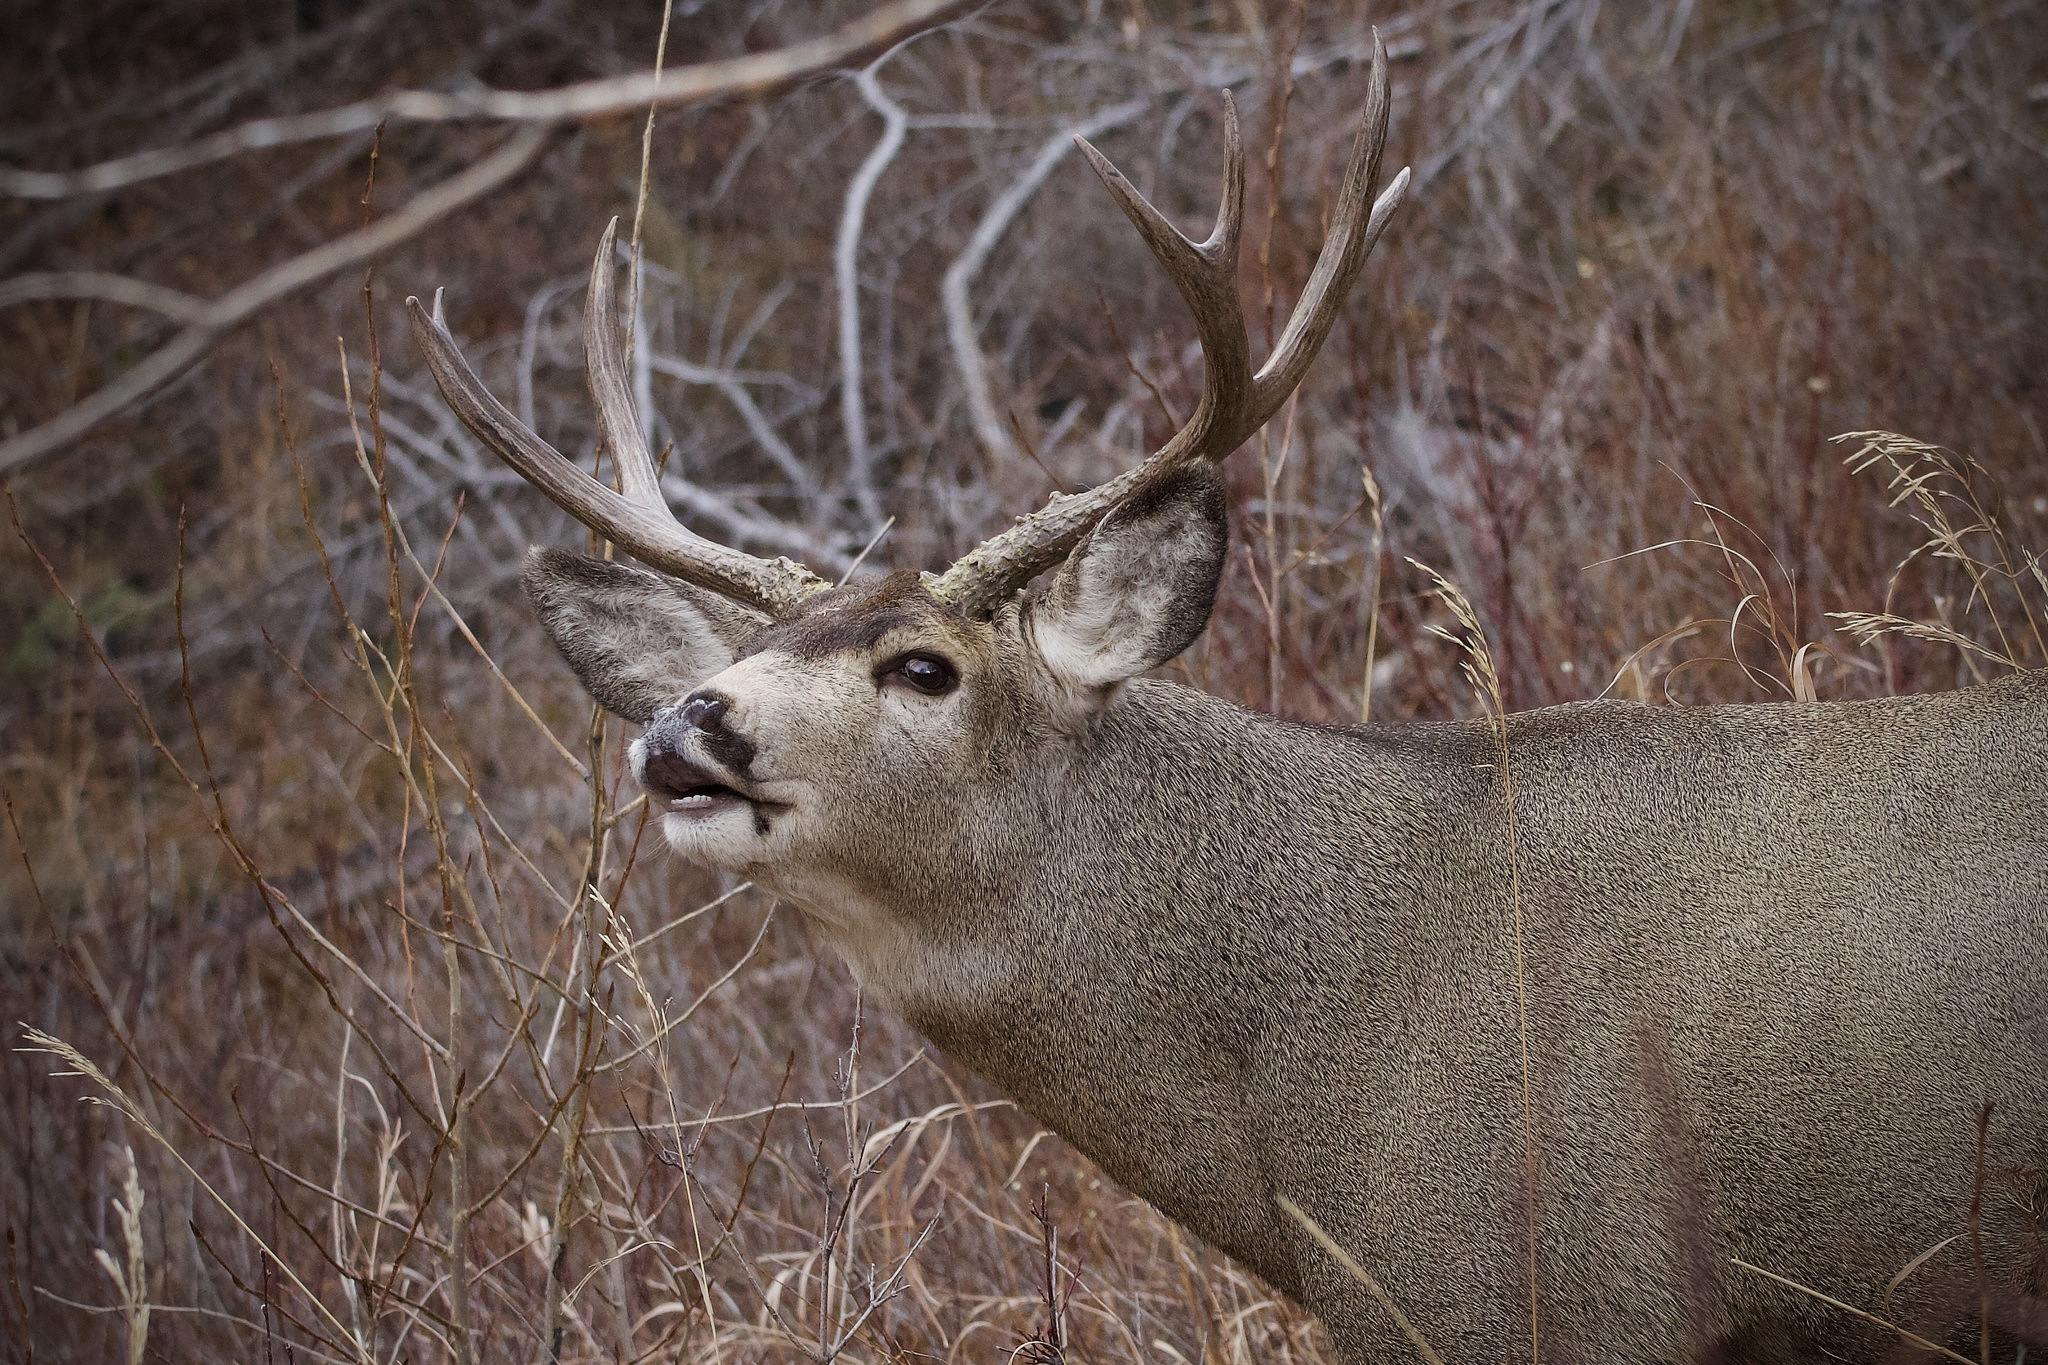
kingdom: Animalia
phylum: Chordata
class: Mammalia
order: Artiodactyla
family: Cervidae
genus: Odocoileus
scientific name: Odocoileus hemionus
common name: Mule deer
